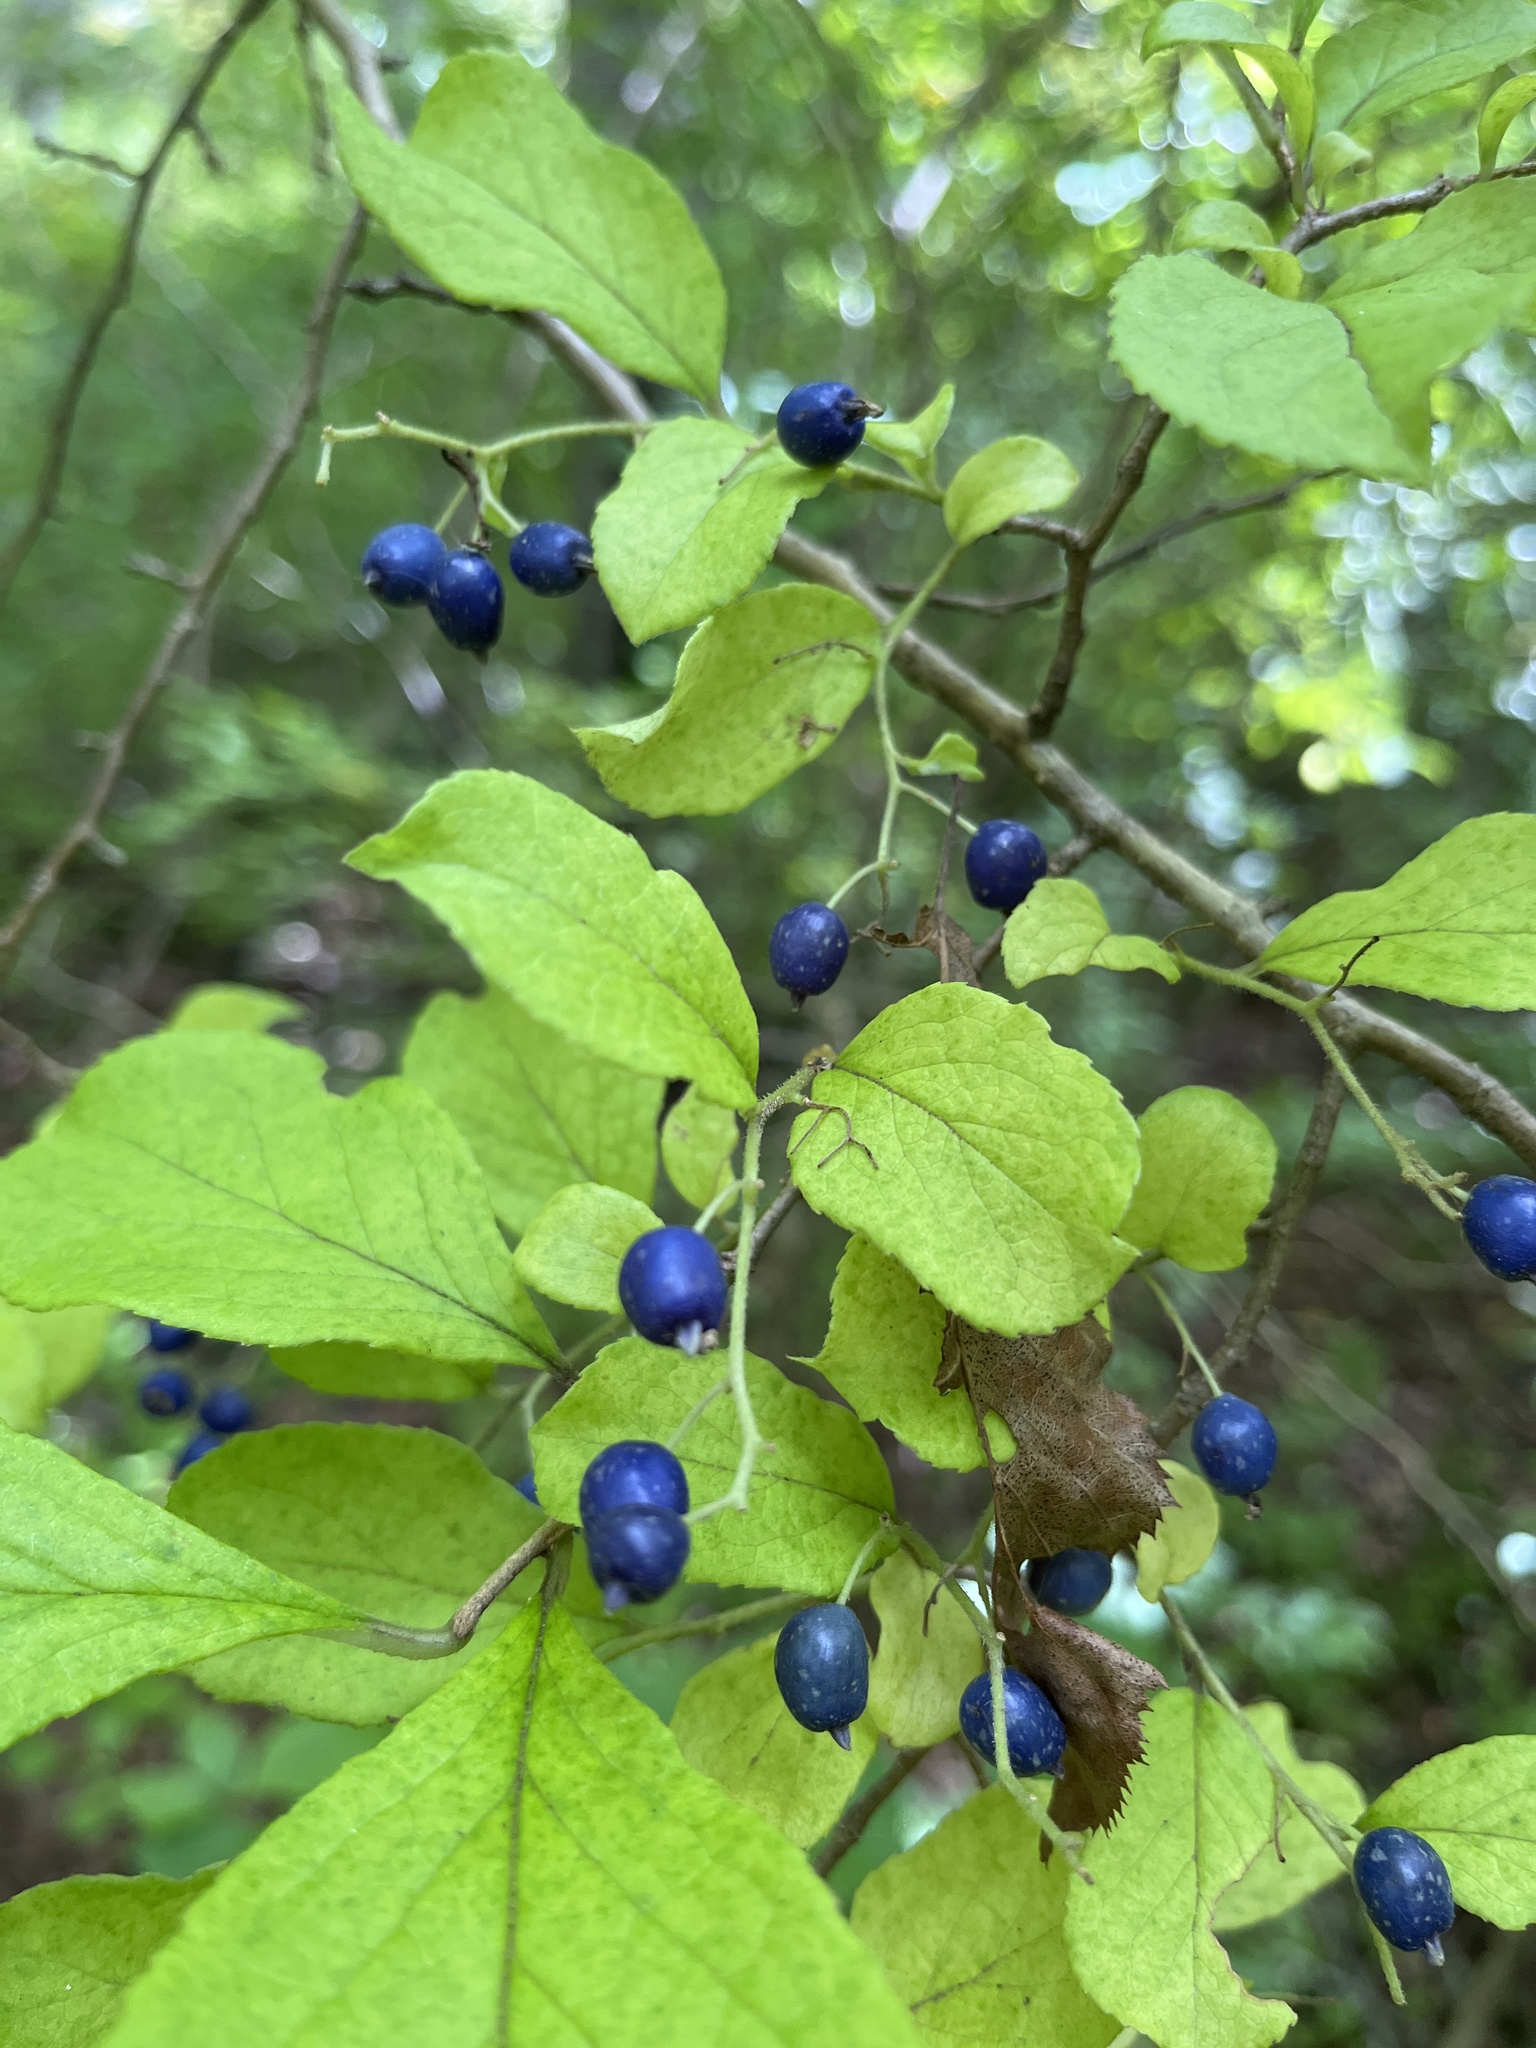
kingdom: Plantae
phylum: Tracheophyta
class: Magnoliopsida
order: Ericales
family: Symplocaceae
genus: Symplocos
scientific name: Symplocos paniculata
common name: Sapphire-berry
